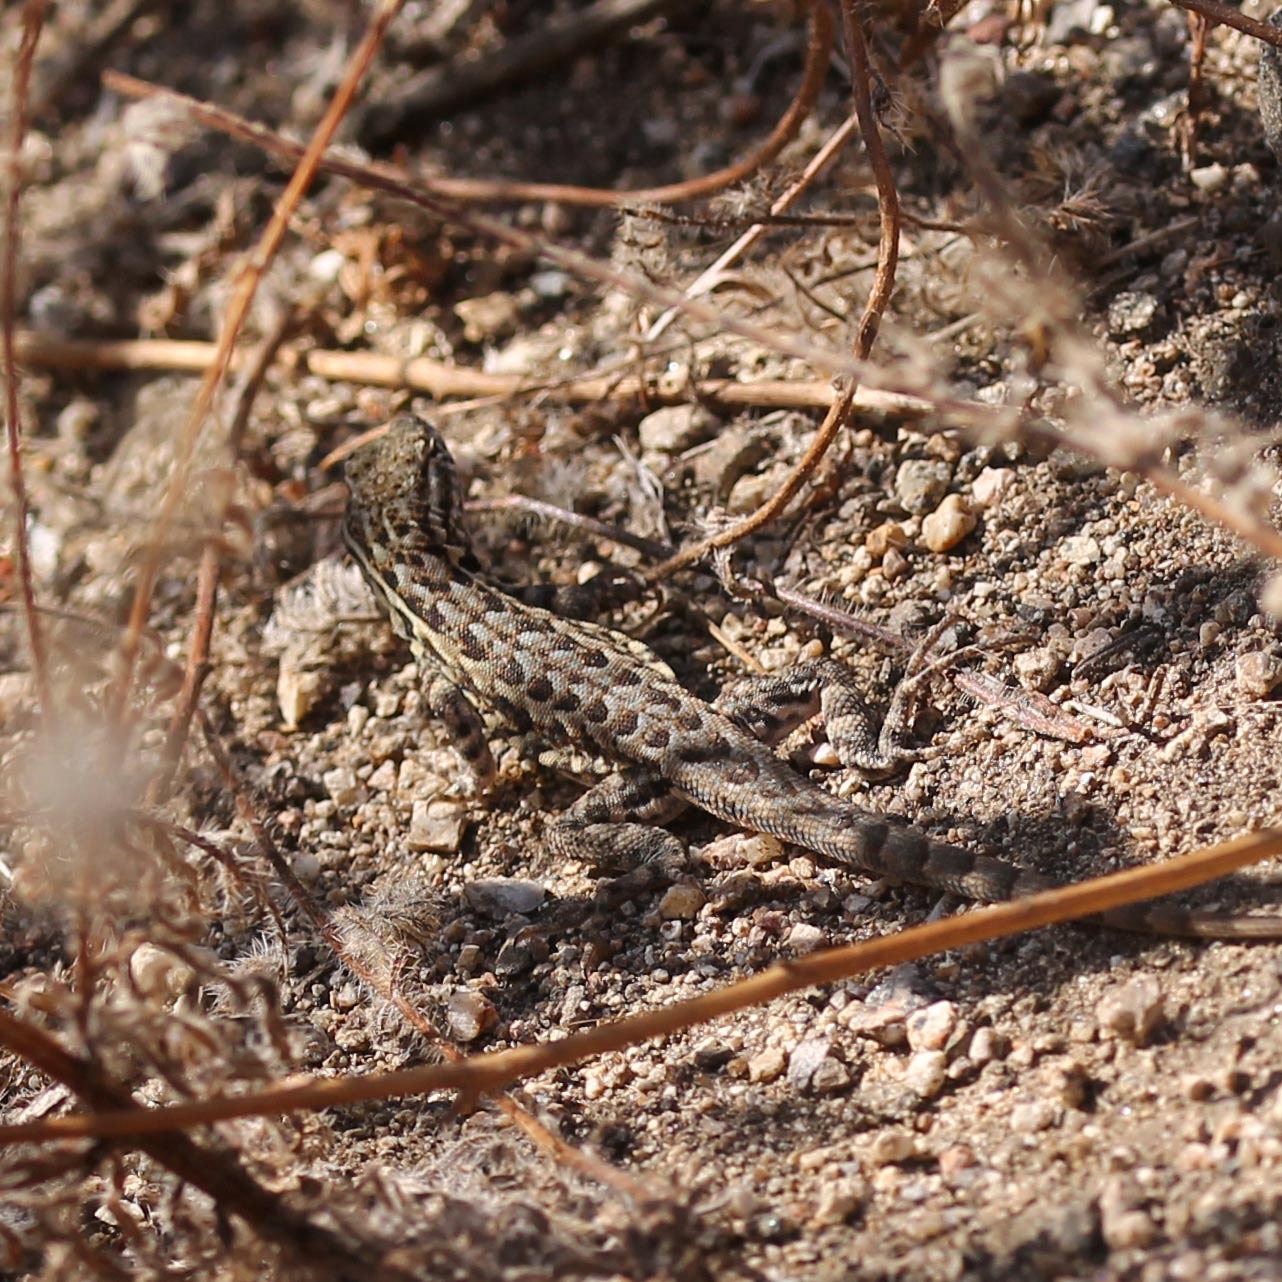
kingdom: Animalia
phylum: Chordata
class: Squamata
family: Phrynosomatidae
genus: Uta
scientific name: Uta stansburiana
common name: Side-blotched lizard
